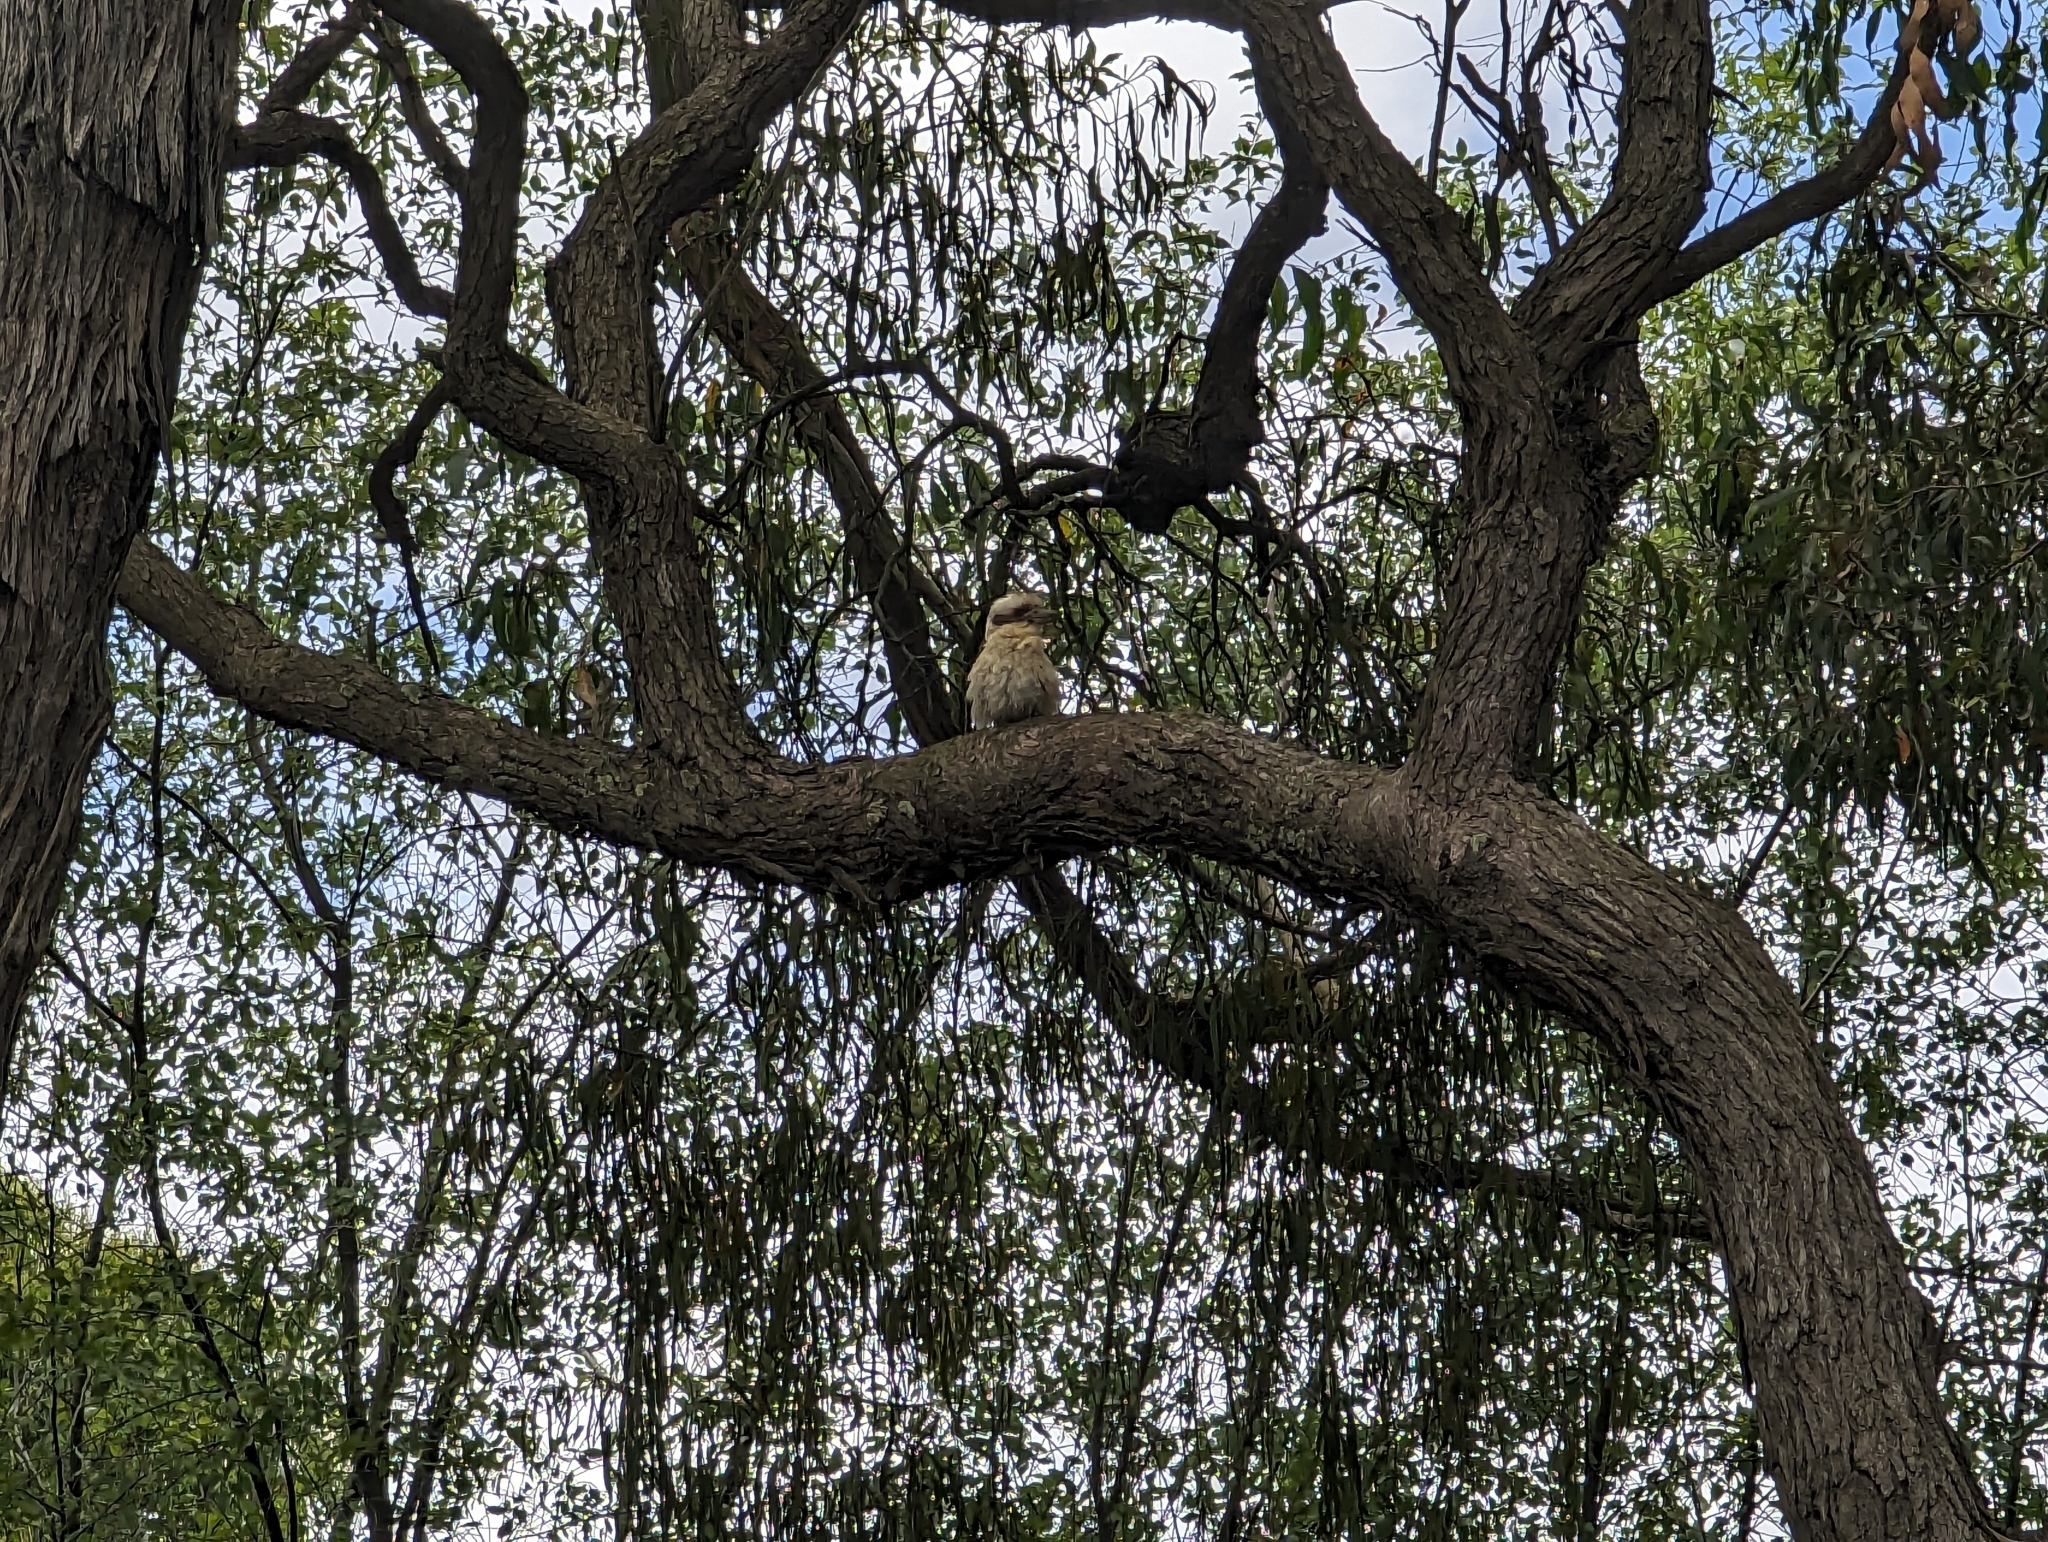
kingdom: Animalia
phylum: Chordata
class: Aves
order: Coraciiformes
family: Alcedinidae
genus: Dacelo
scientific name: Dacelo novaeguineae
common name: Laughing kookaburra
